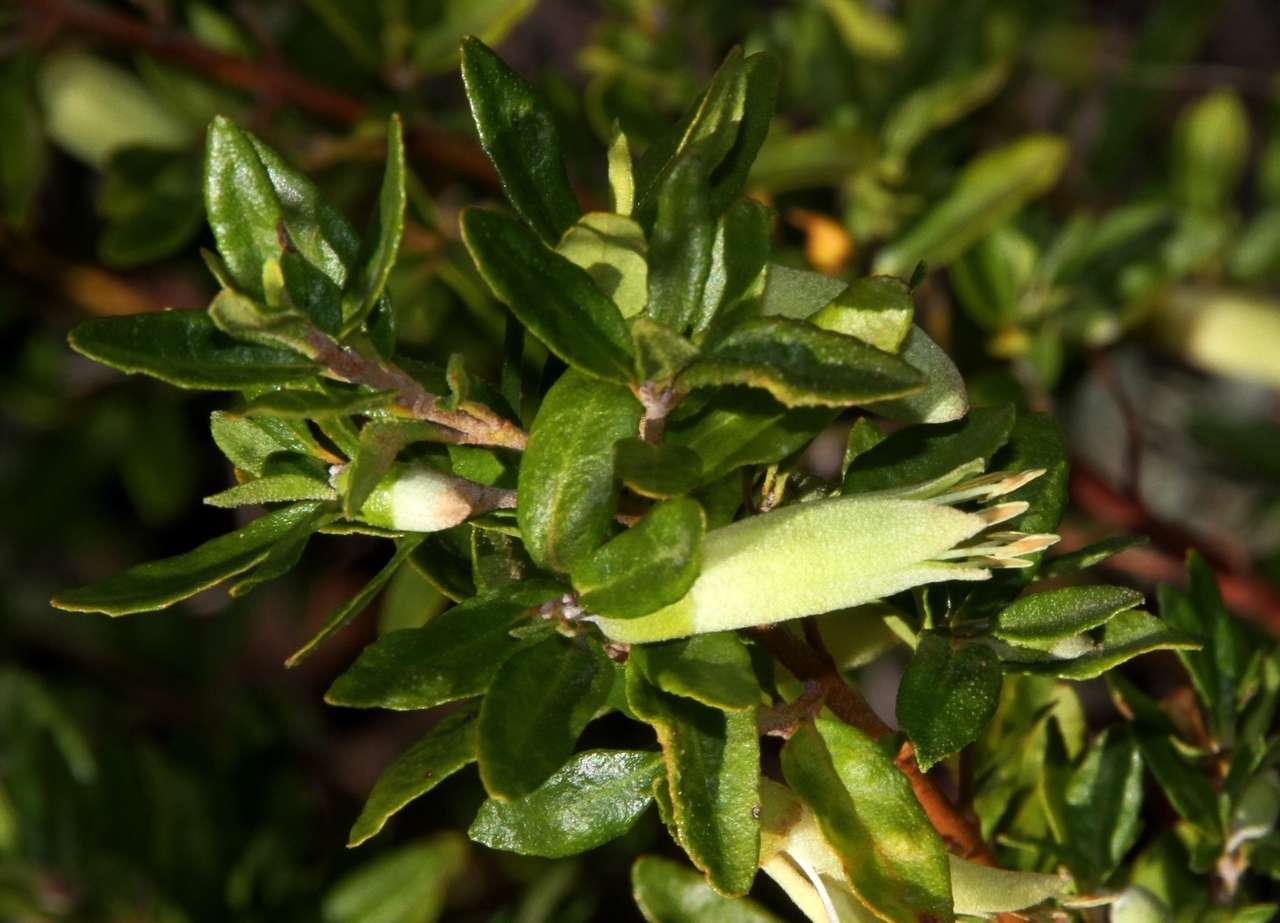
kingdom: Plantae
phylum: Tracheophyta
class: Magnoliopsida
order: Sapindales
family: Rutaceae
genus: Correa
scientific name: Correa glabra
